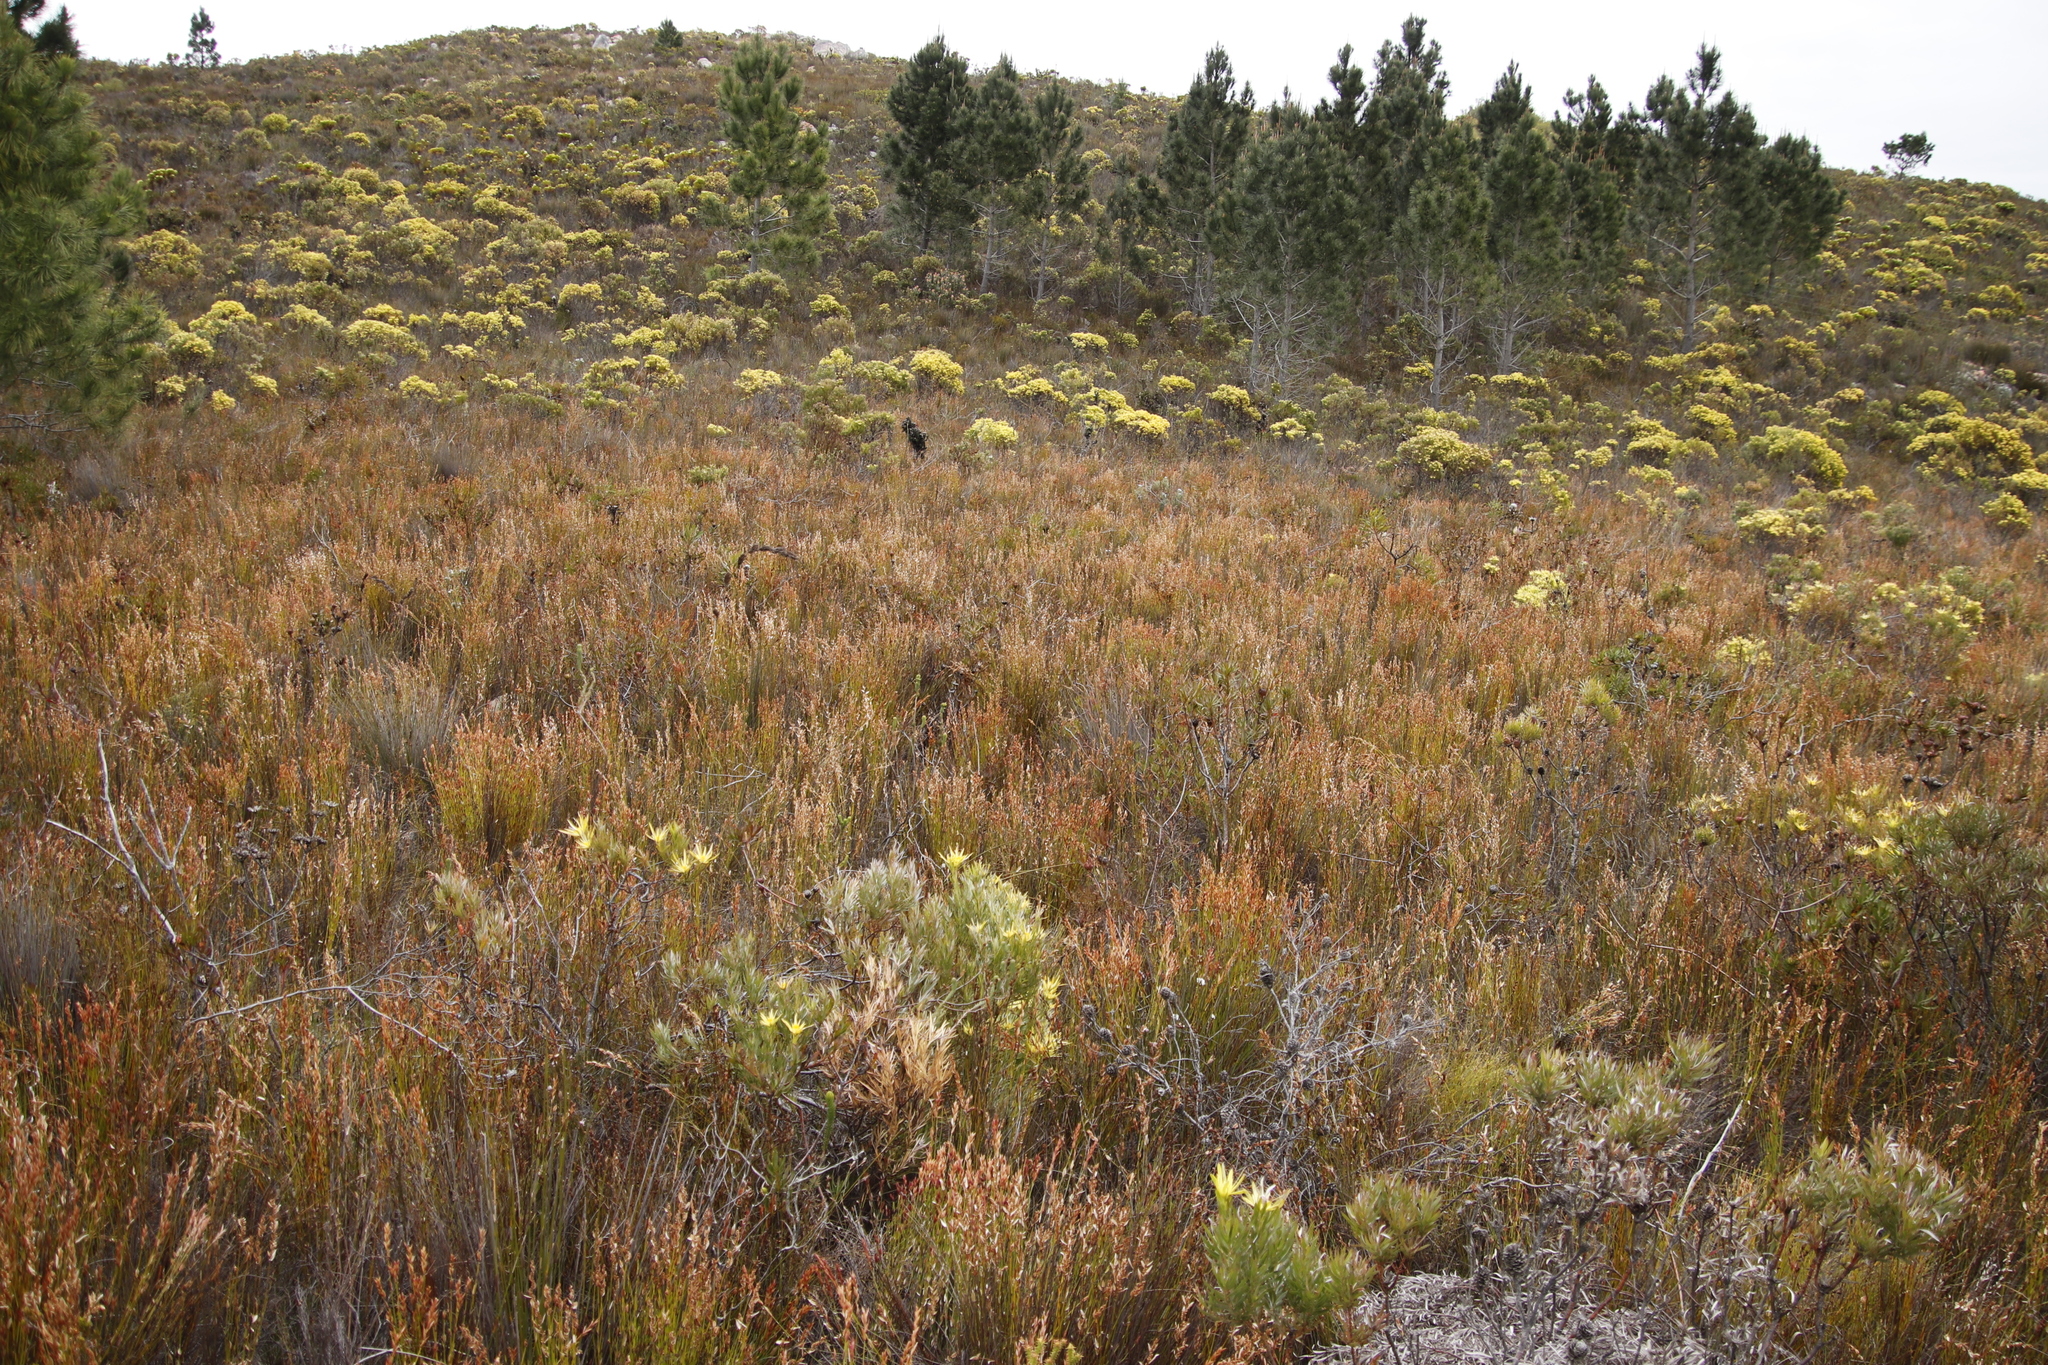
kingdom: Plantae
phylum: Tracheophyta
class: Pinopsida
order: Pinales
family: Pinaceae
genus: Pinus
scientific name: Pinus pinaster
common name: Maritime pine
